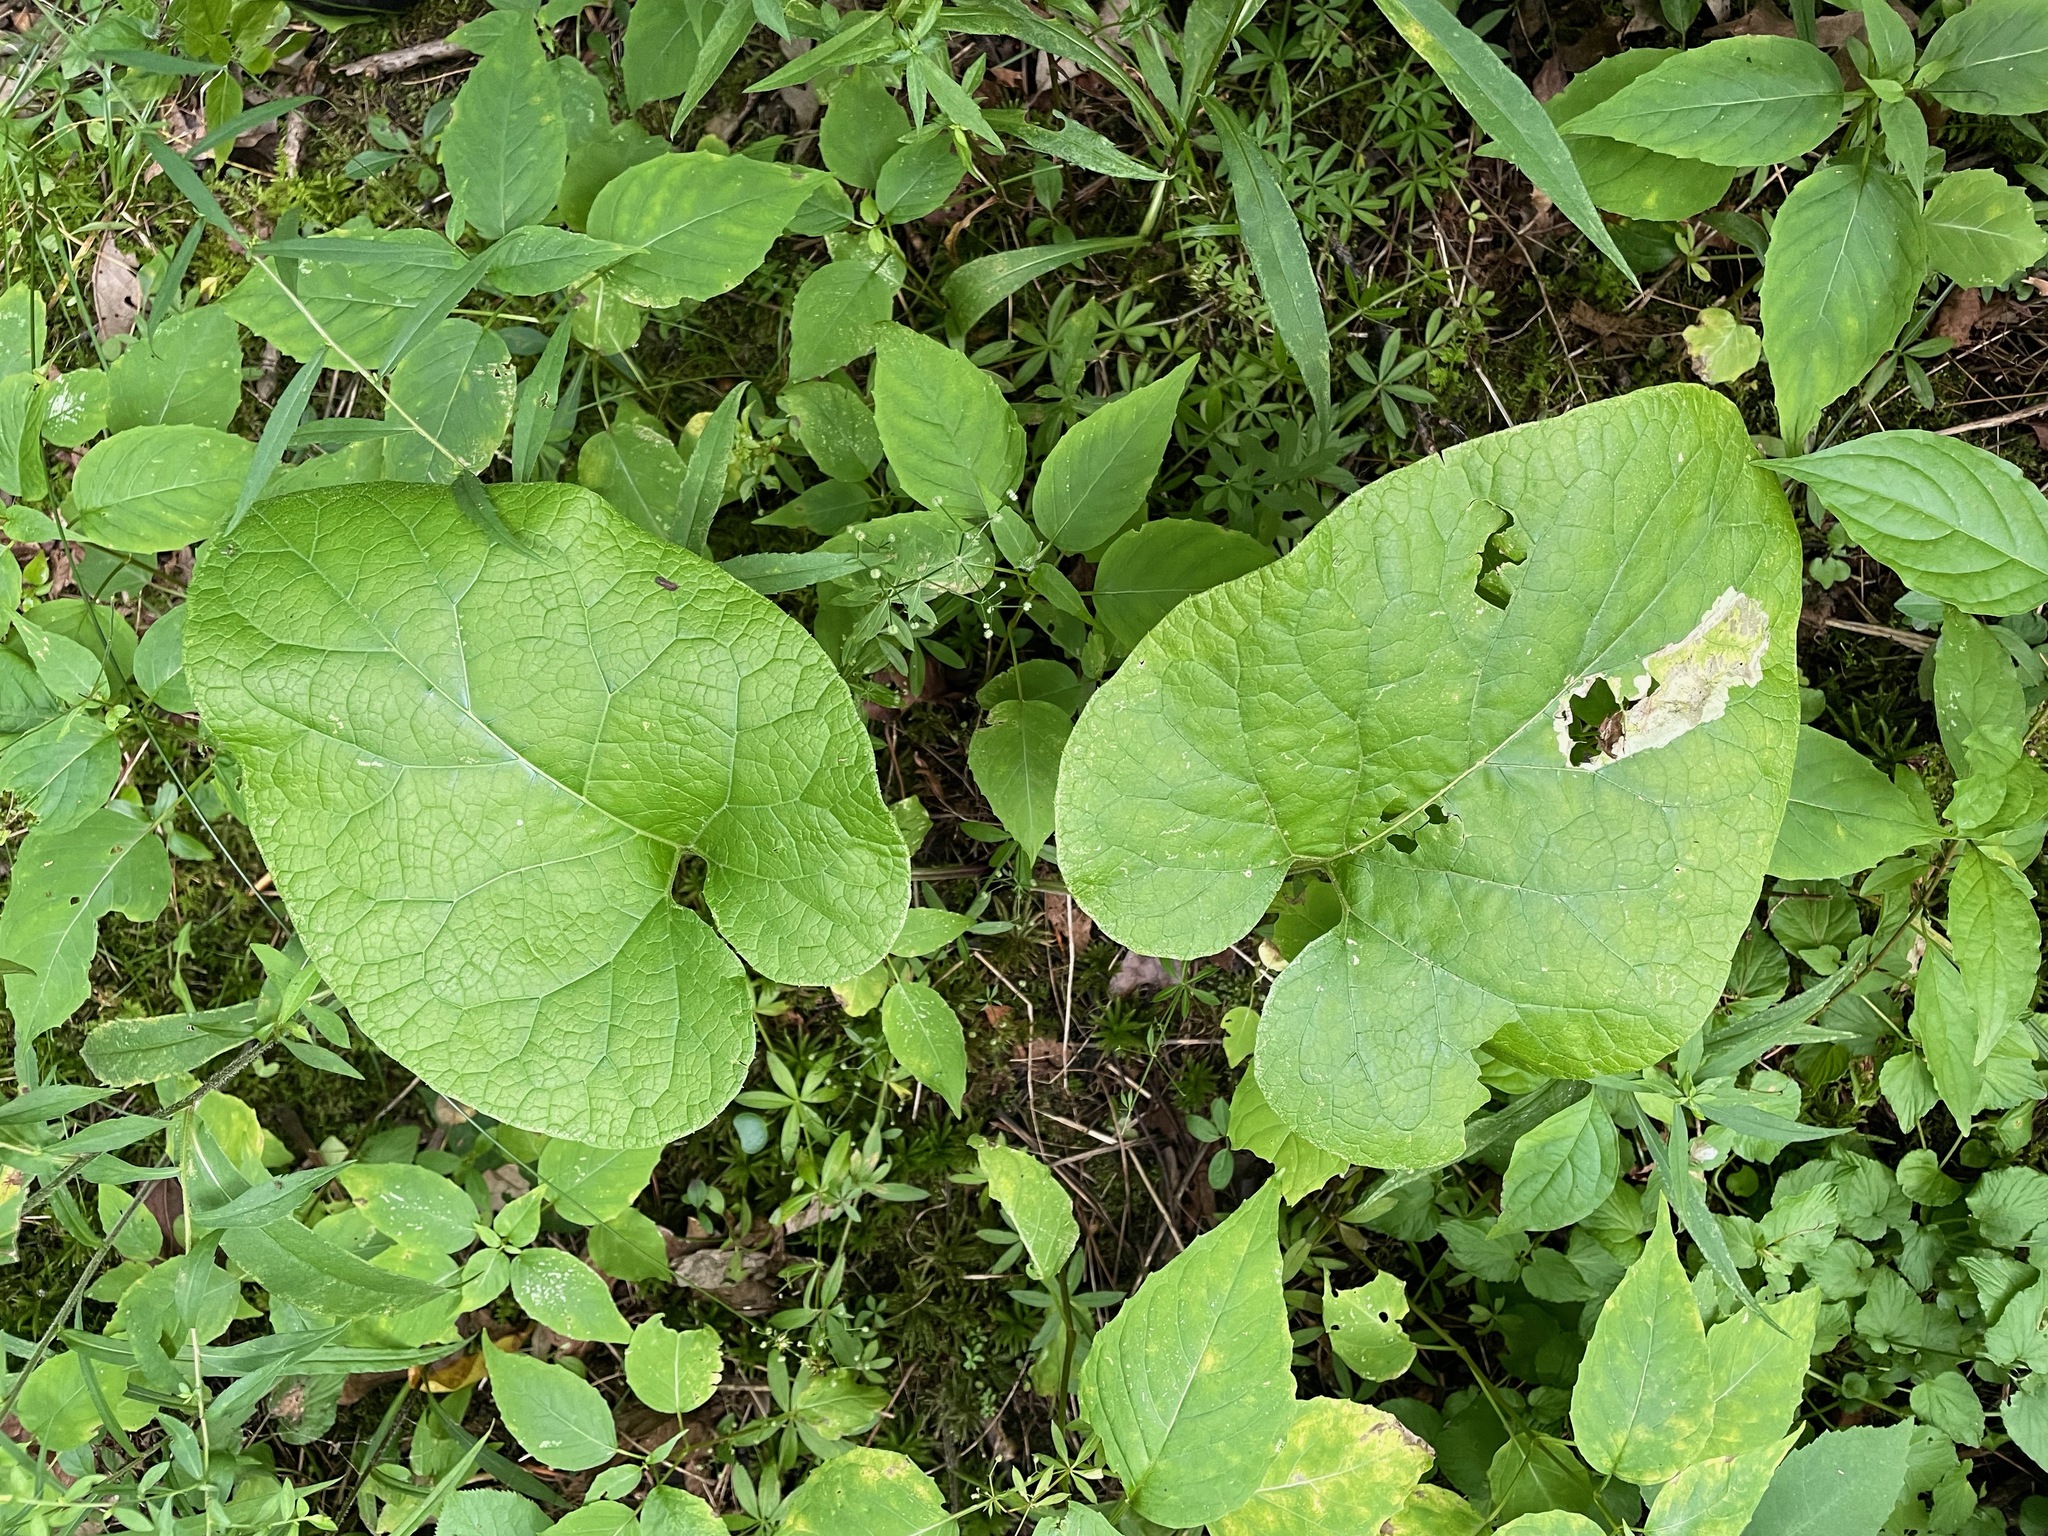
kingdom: Plantae
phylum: Tracheophyta
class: Magnoliopsida
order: Asterales
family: Asteraceae
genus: Arctium
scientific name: Arctium
